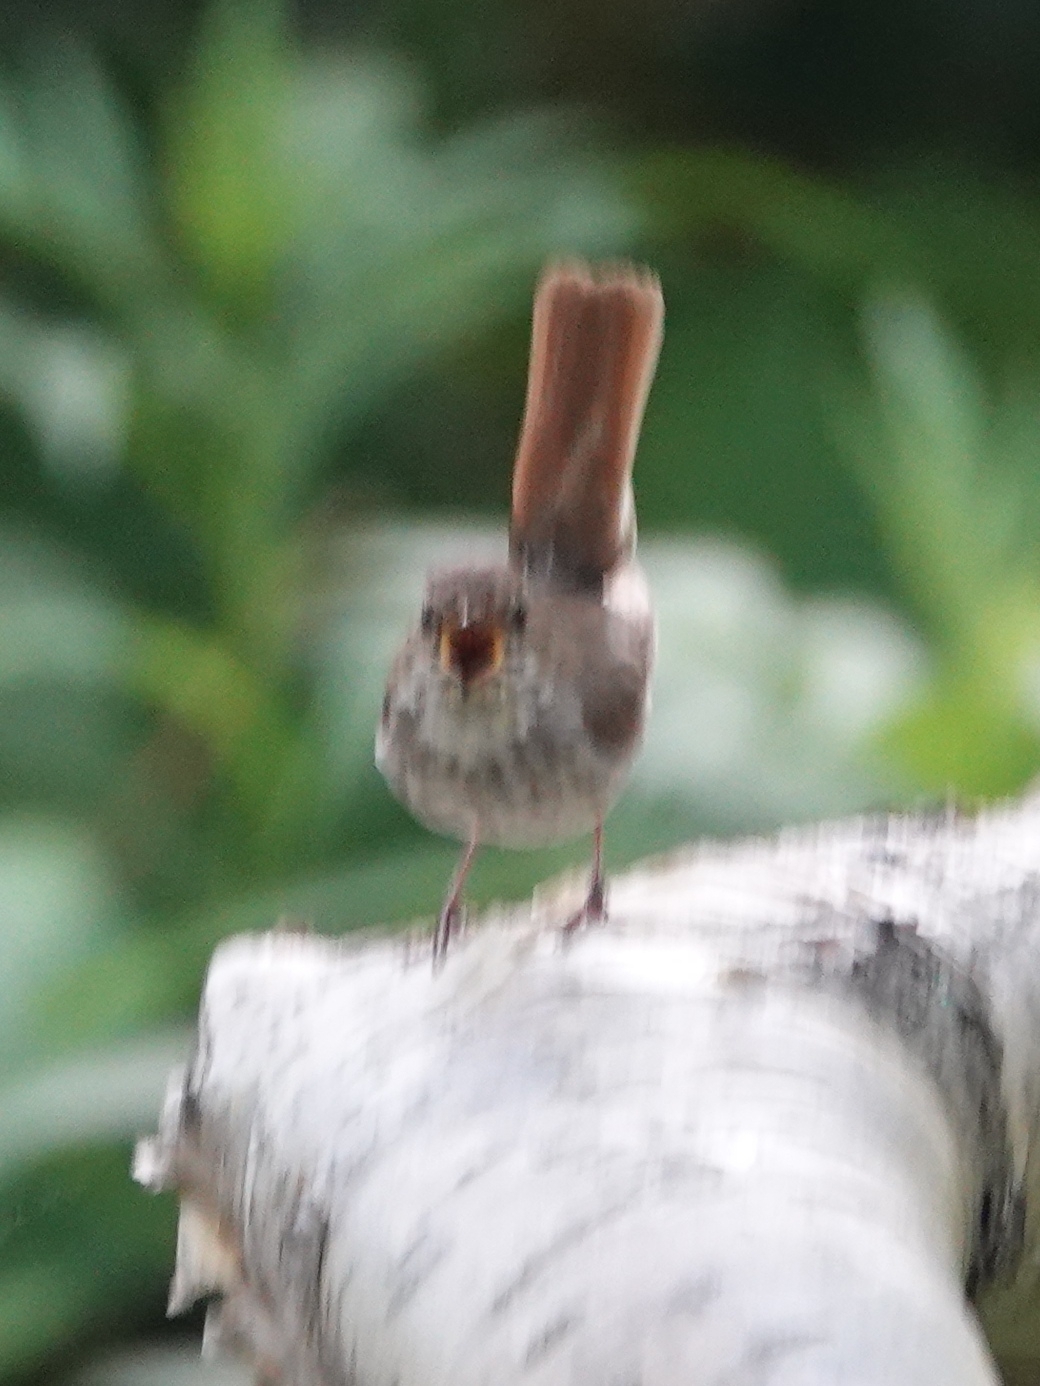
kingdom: Animalia
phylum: Chordata
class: Aves
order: Passeriformes
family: Muscicapidae
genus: Larvivora
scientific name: Larvivora sibilans
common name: Rufous-tailed robin
